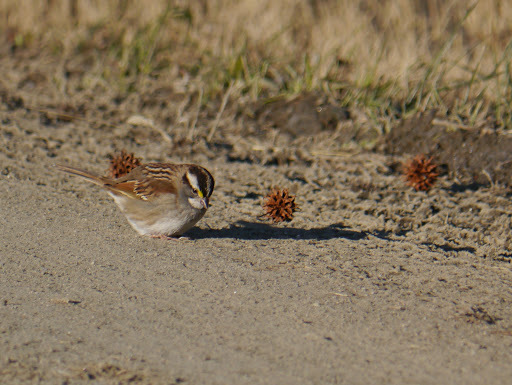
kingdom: Animalia
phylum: Chordata
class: Aves
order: Passeriformes
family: Passerellidae
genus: Zonotrichia
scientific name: Zonotrichia albicollis
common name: White-throated sparrow
